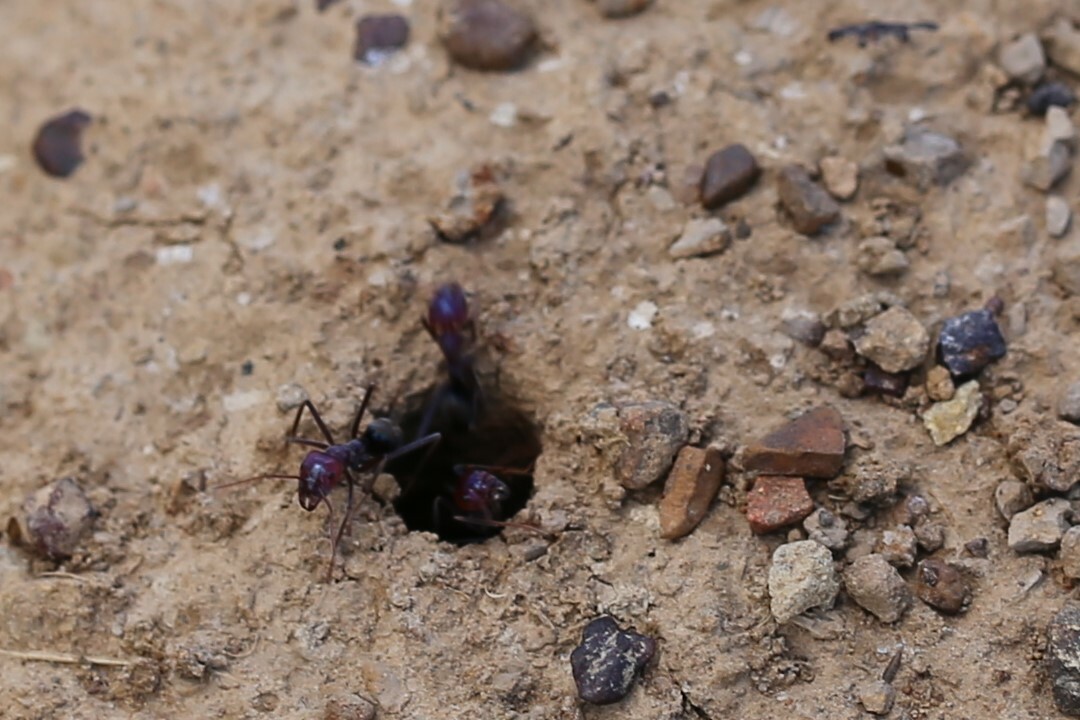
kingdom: Animalia
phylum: Arthropoda
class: Insecta
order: Hymenoptera
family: Formicidae
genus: Iridomyrmex
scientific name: Iridomyrmex purpureus
